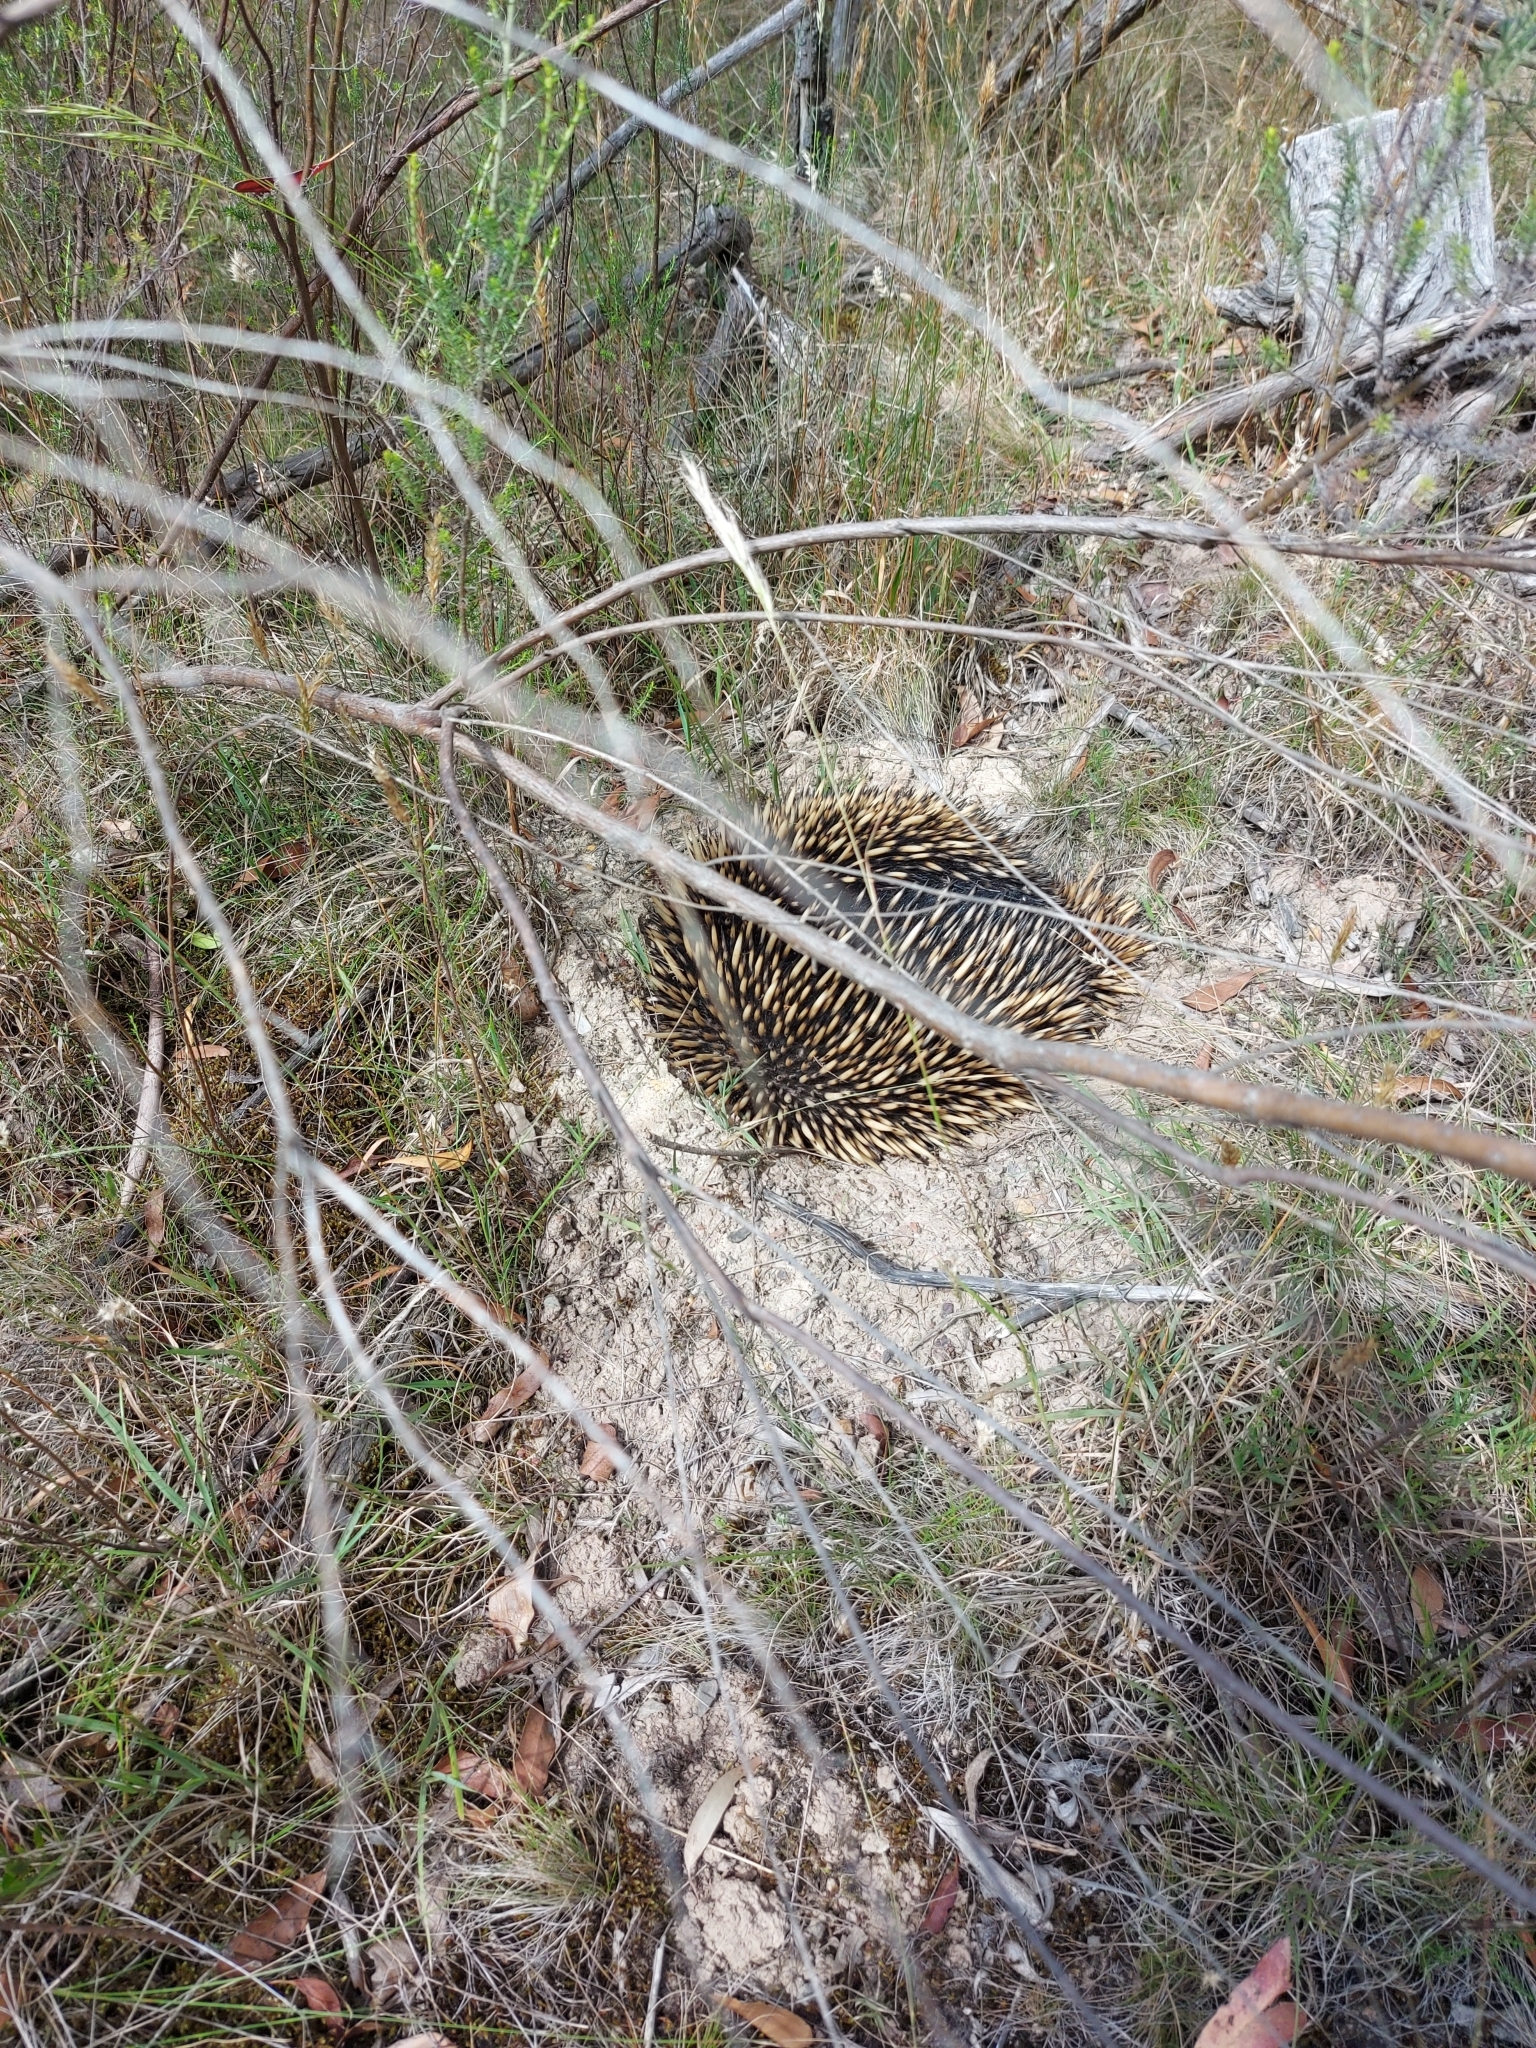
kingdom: Animalia
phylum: Chordata
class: Mammalia
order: Monotremata
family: Tachyglossidae
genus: Tachyglossus
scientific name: Tachyglossus aculeatus
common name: Short-beaked echidna
